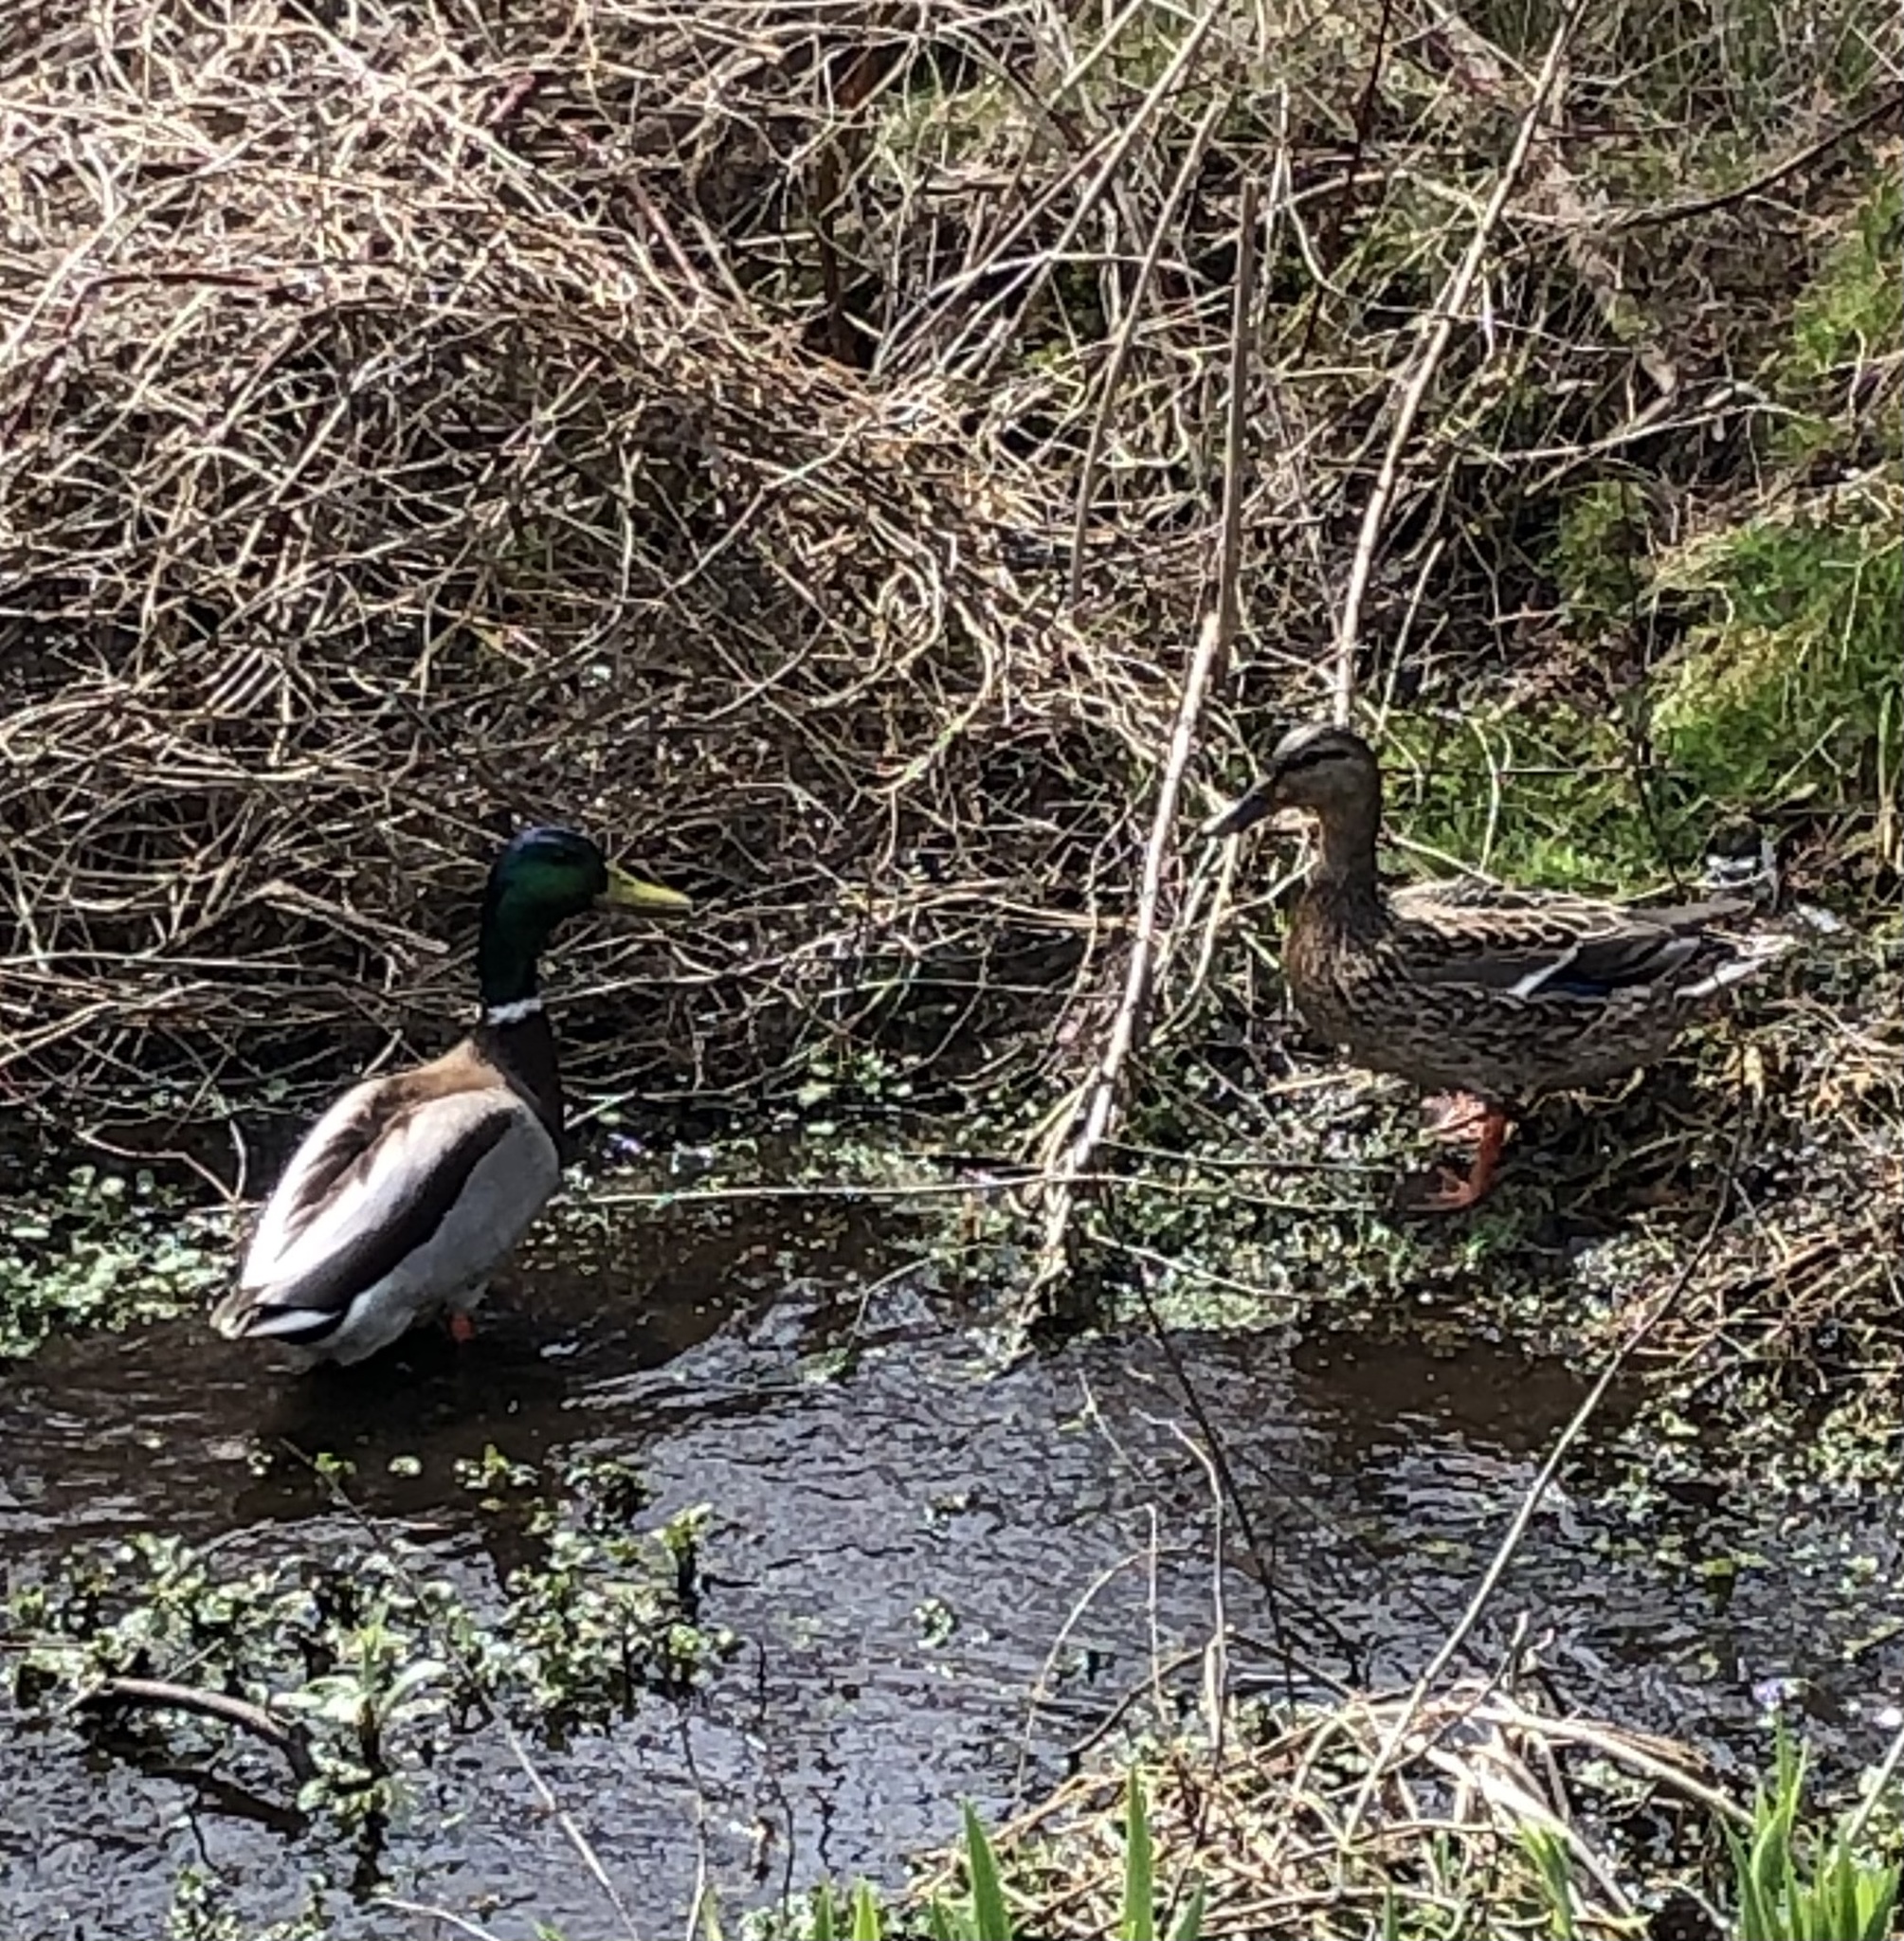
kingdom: Animalia
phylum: Chordata
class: Aves
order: Anseriformes
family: Anatidae
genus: Anas
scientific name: Anas platyrhynchos
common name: Mallard
